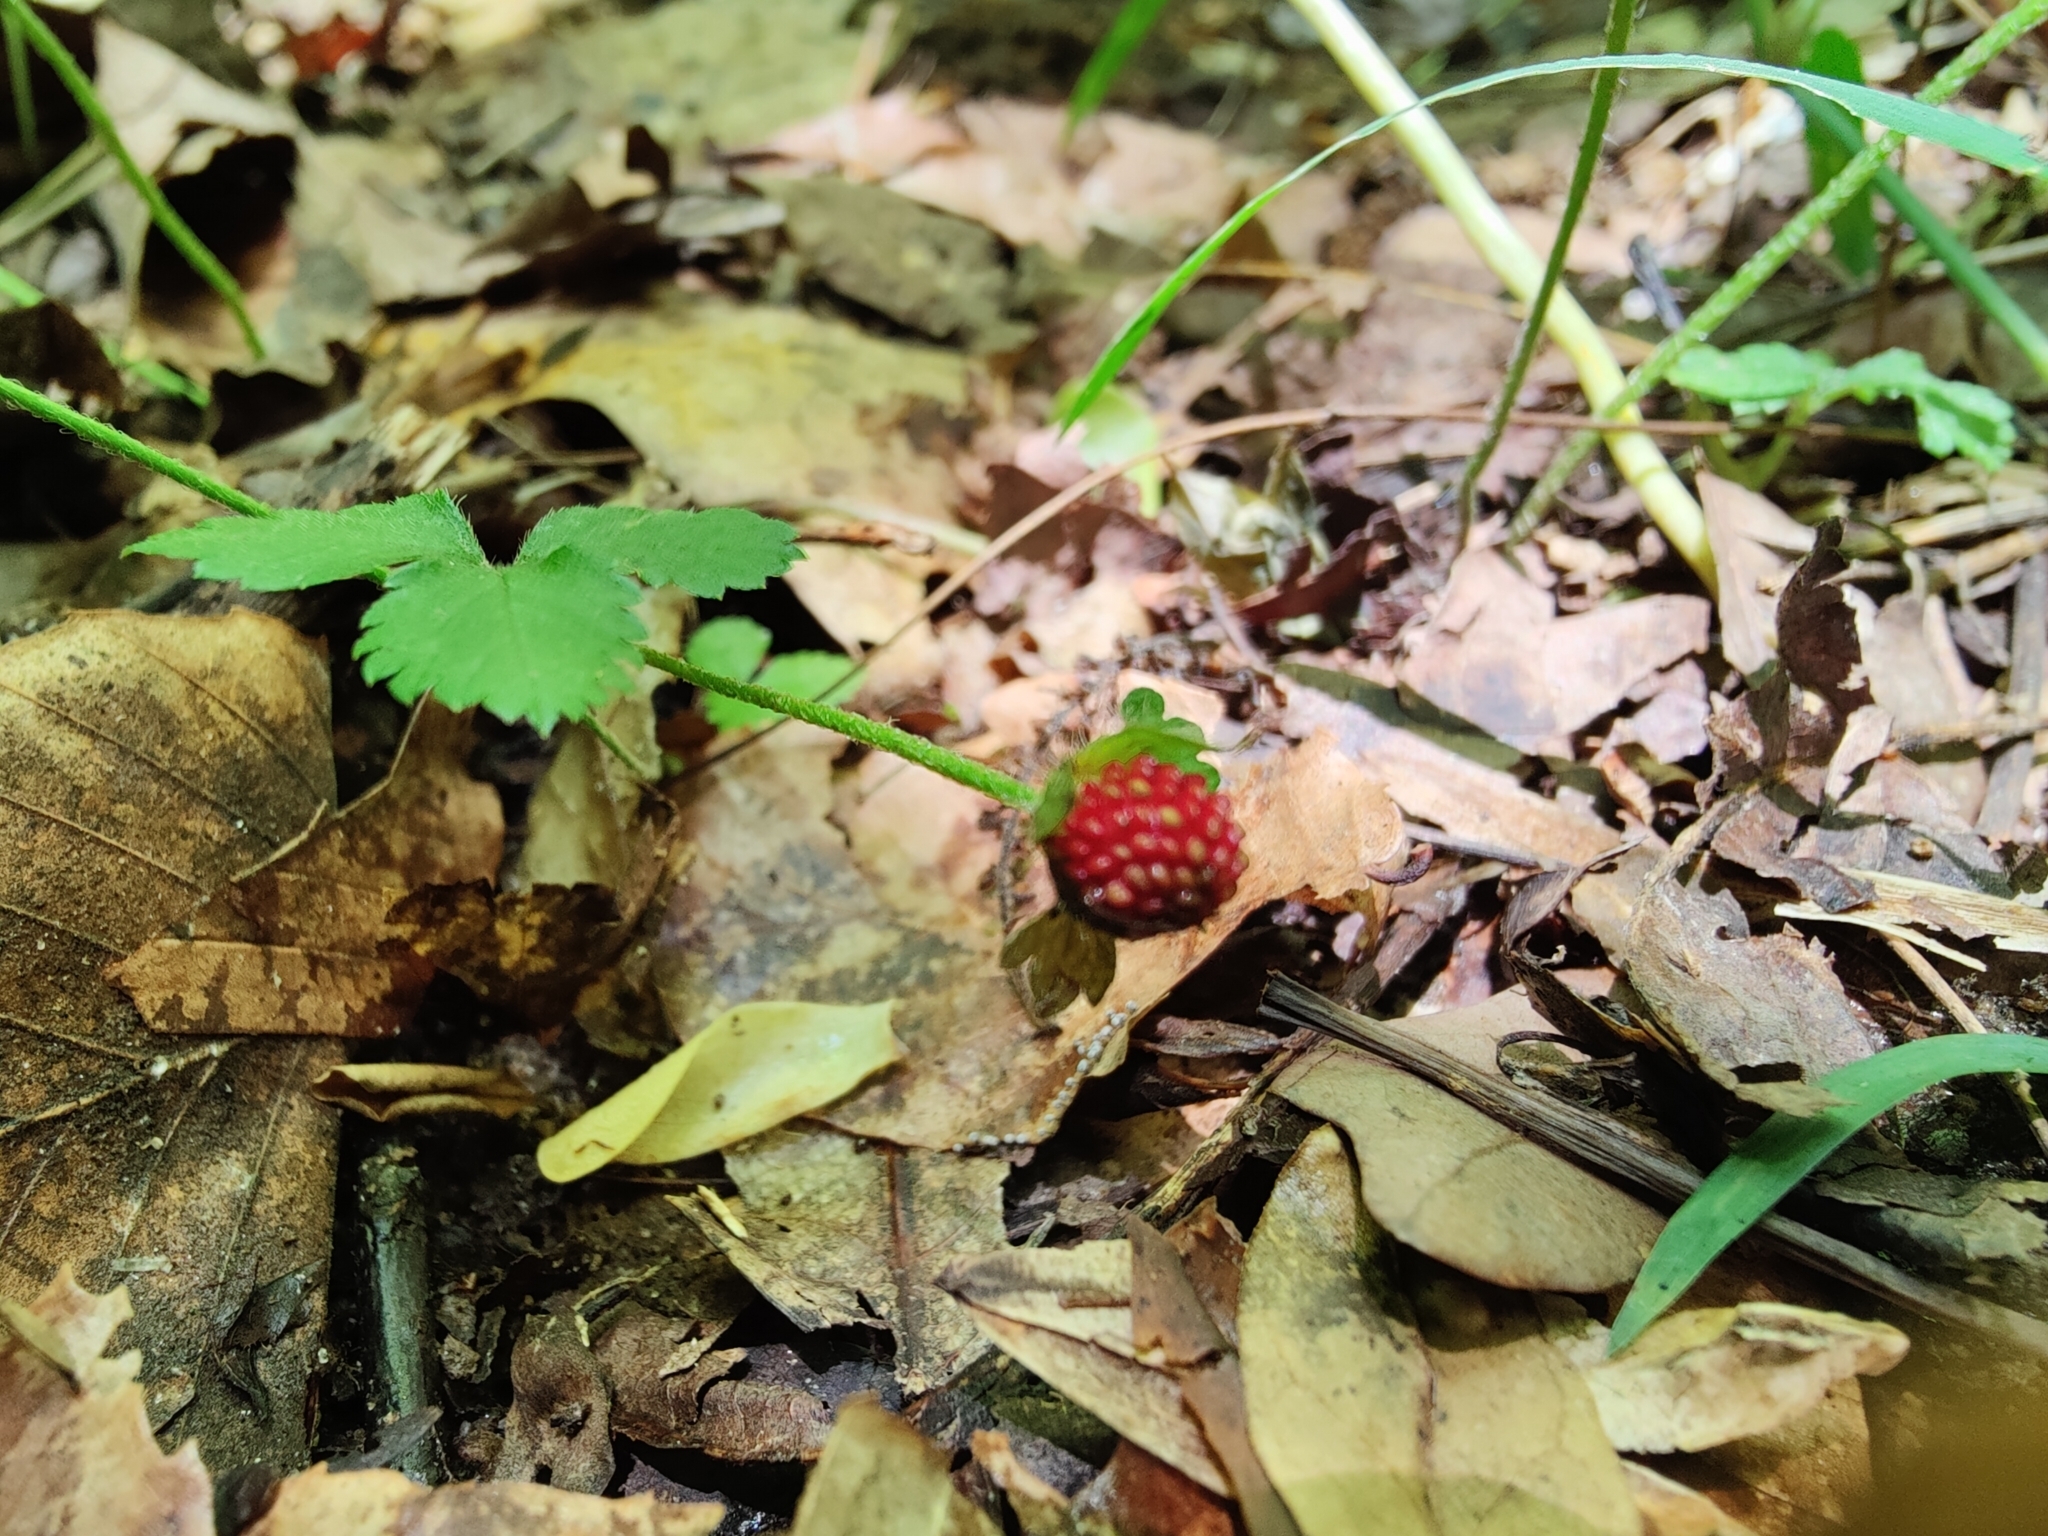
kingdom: Plantae
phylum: Tracheophyta
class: Magnoliopsida
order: Rosales
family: Rosaceae
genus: Potentilla
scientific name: Potentilla indica
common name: Yellow-flowered strawberry
